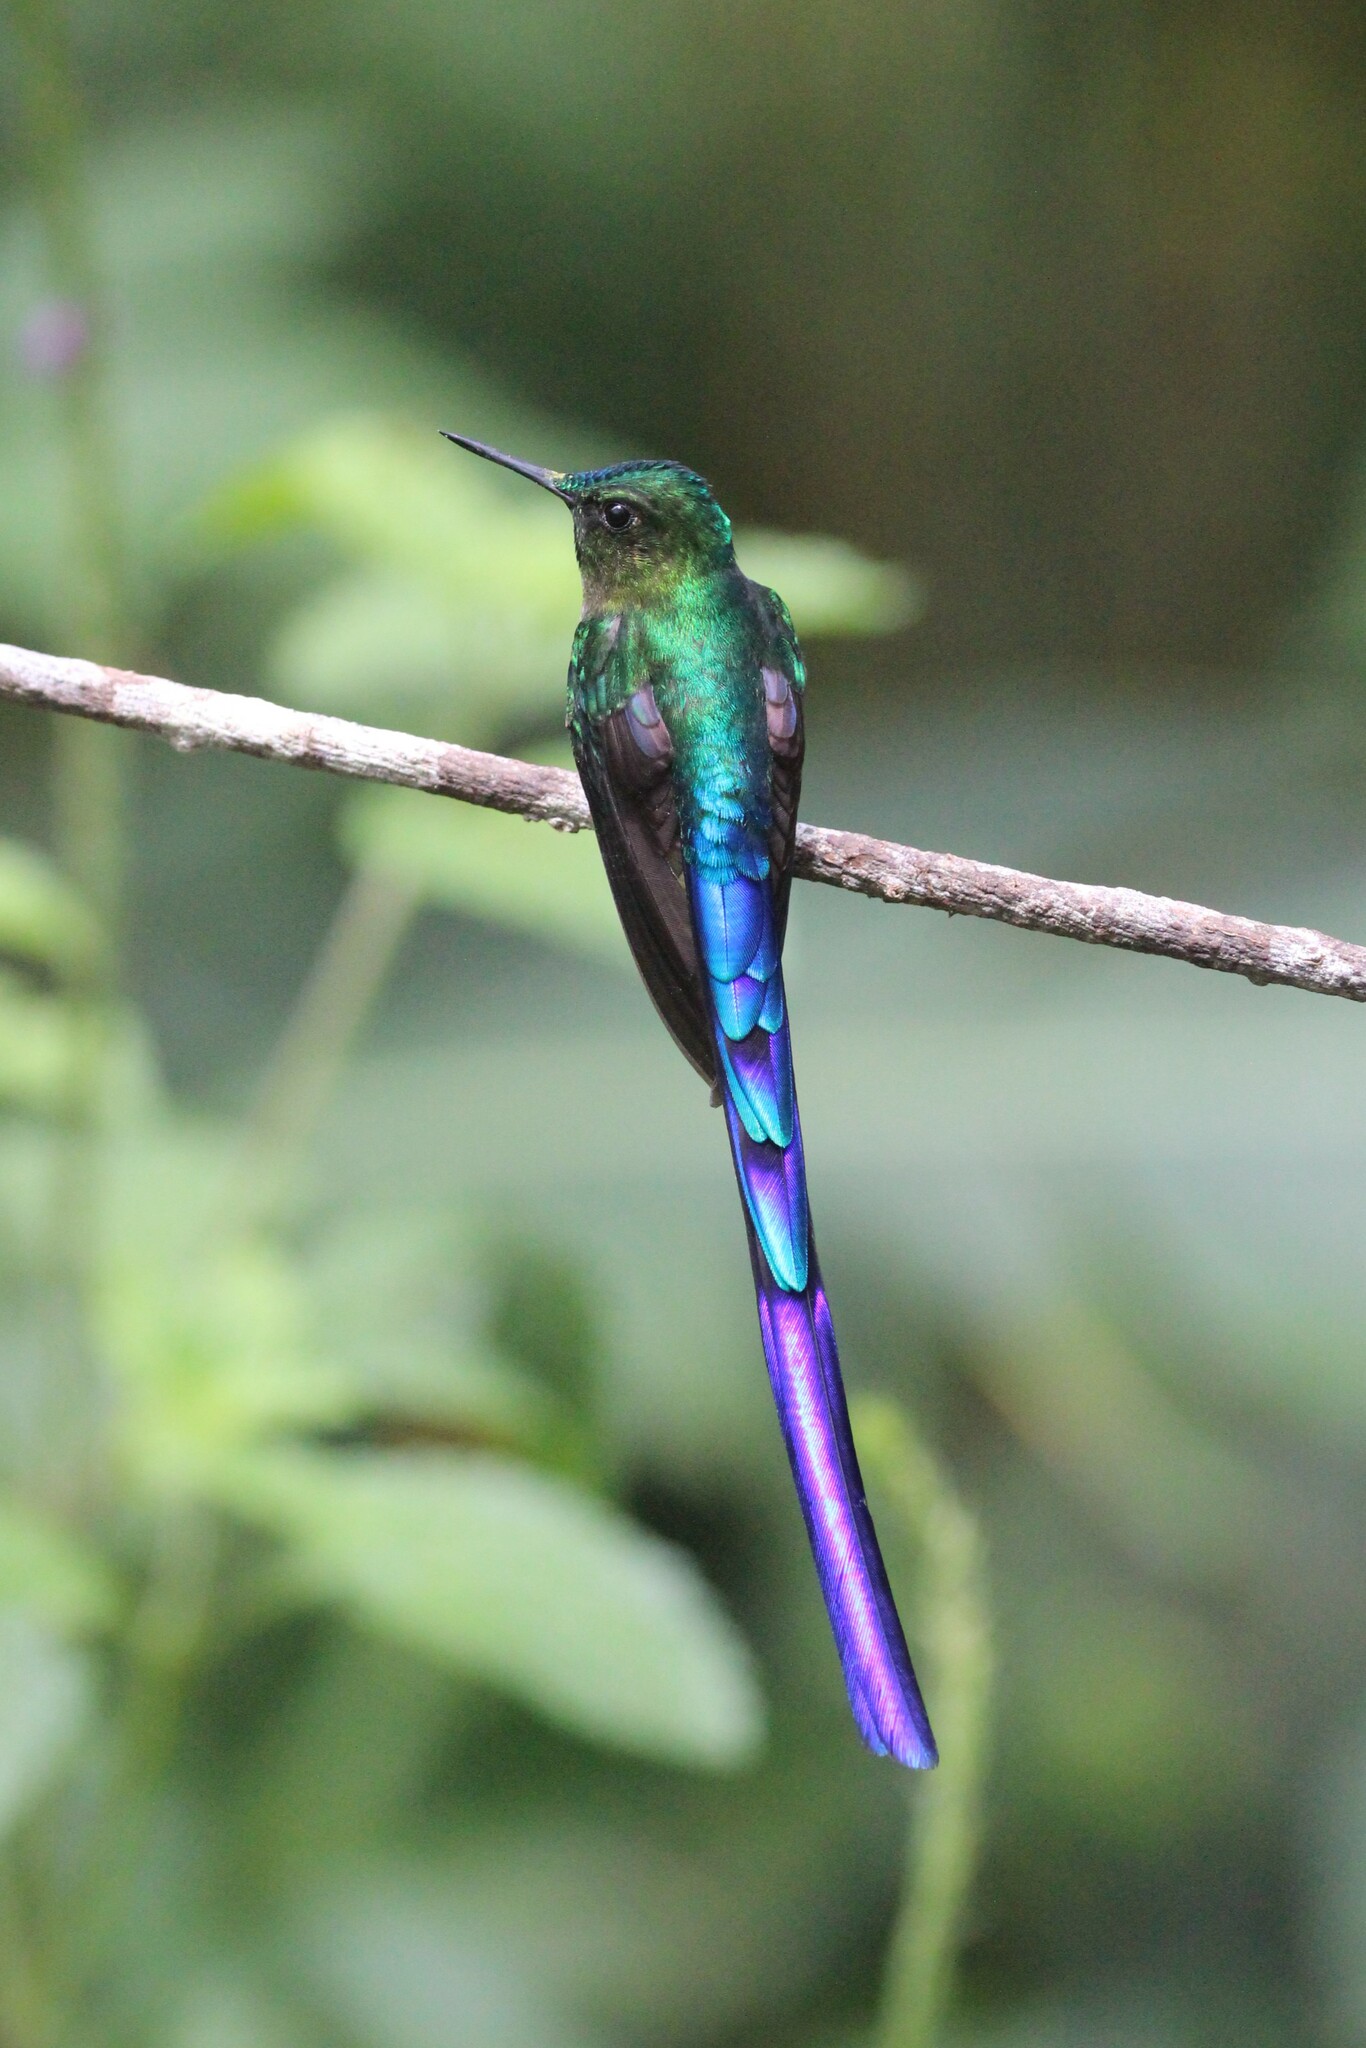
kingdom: Animalia
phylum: Chordata
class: Aves
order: Apodiformes
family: Trochilidae
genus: Aglaiocercus
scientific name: Aglaiocercus coelestis
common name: Violet-tailed sylph
